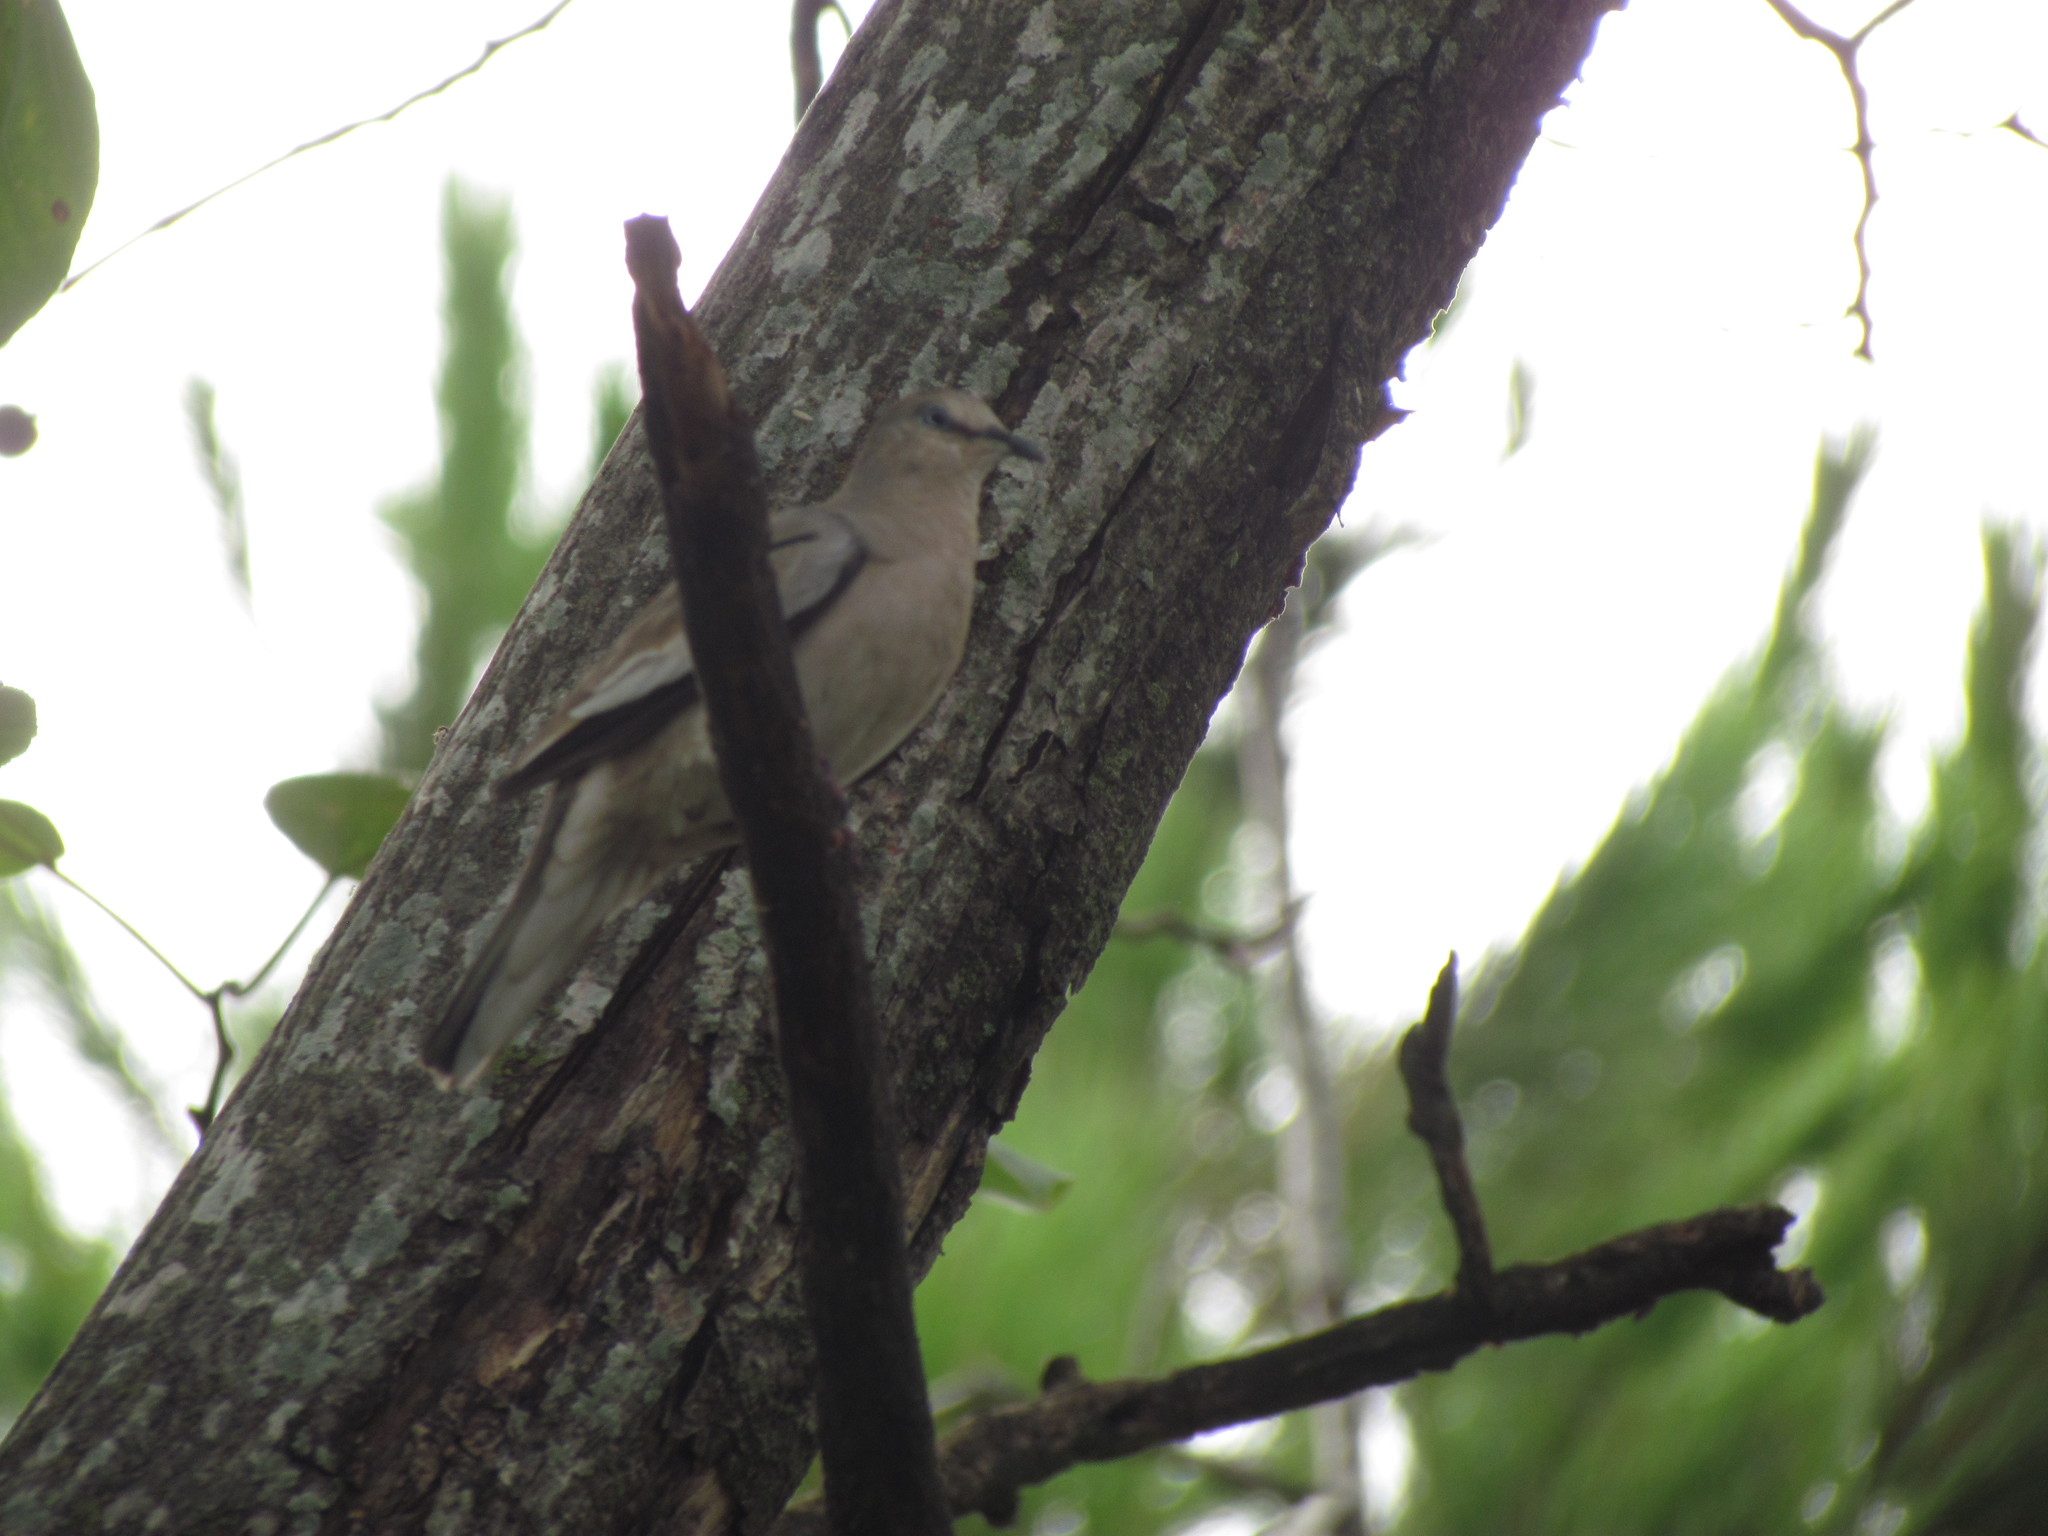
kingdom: Animalia
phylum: Chordata
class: Aves
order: Columbiformes
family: Columbidae
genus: Columbina
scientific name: Columbina picui
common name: Picui ground dove
